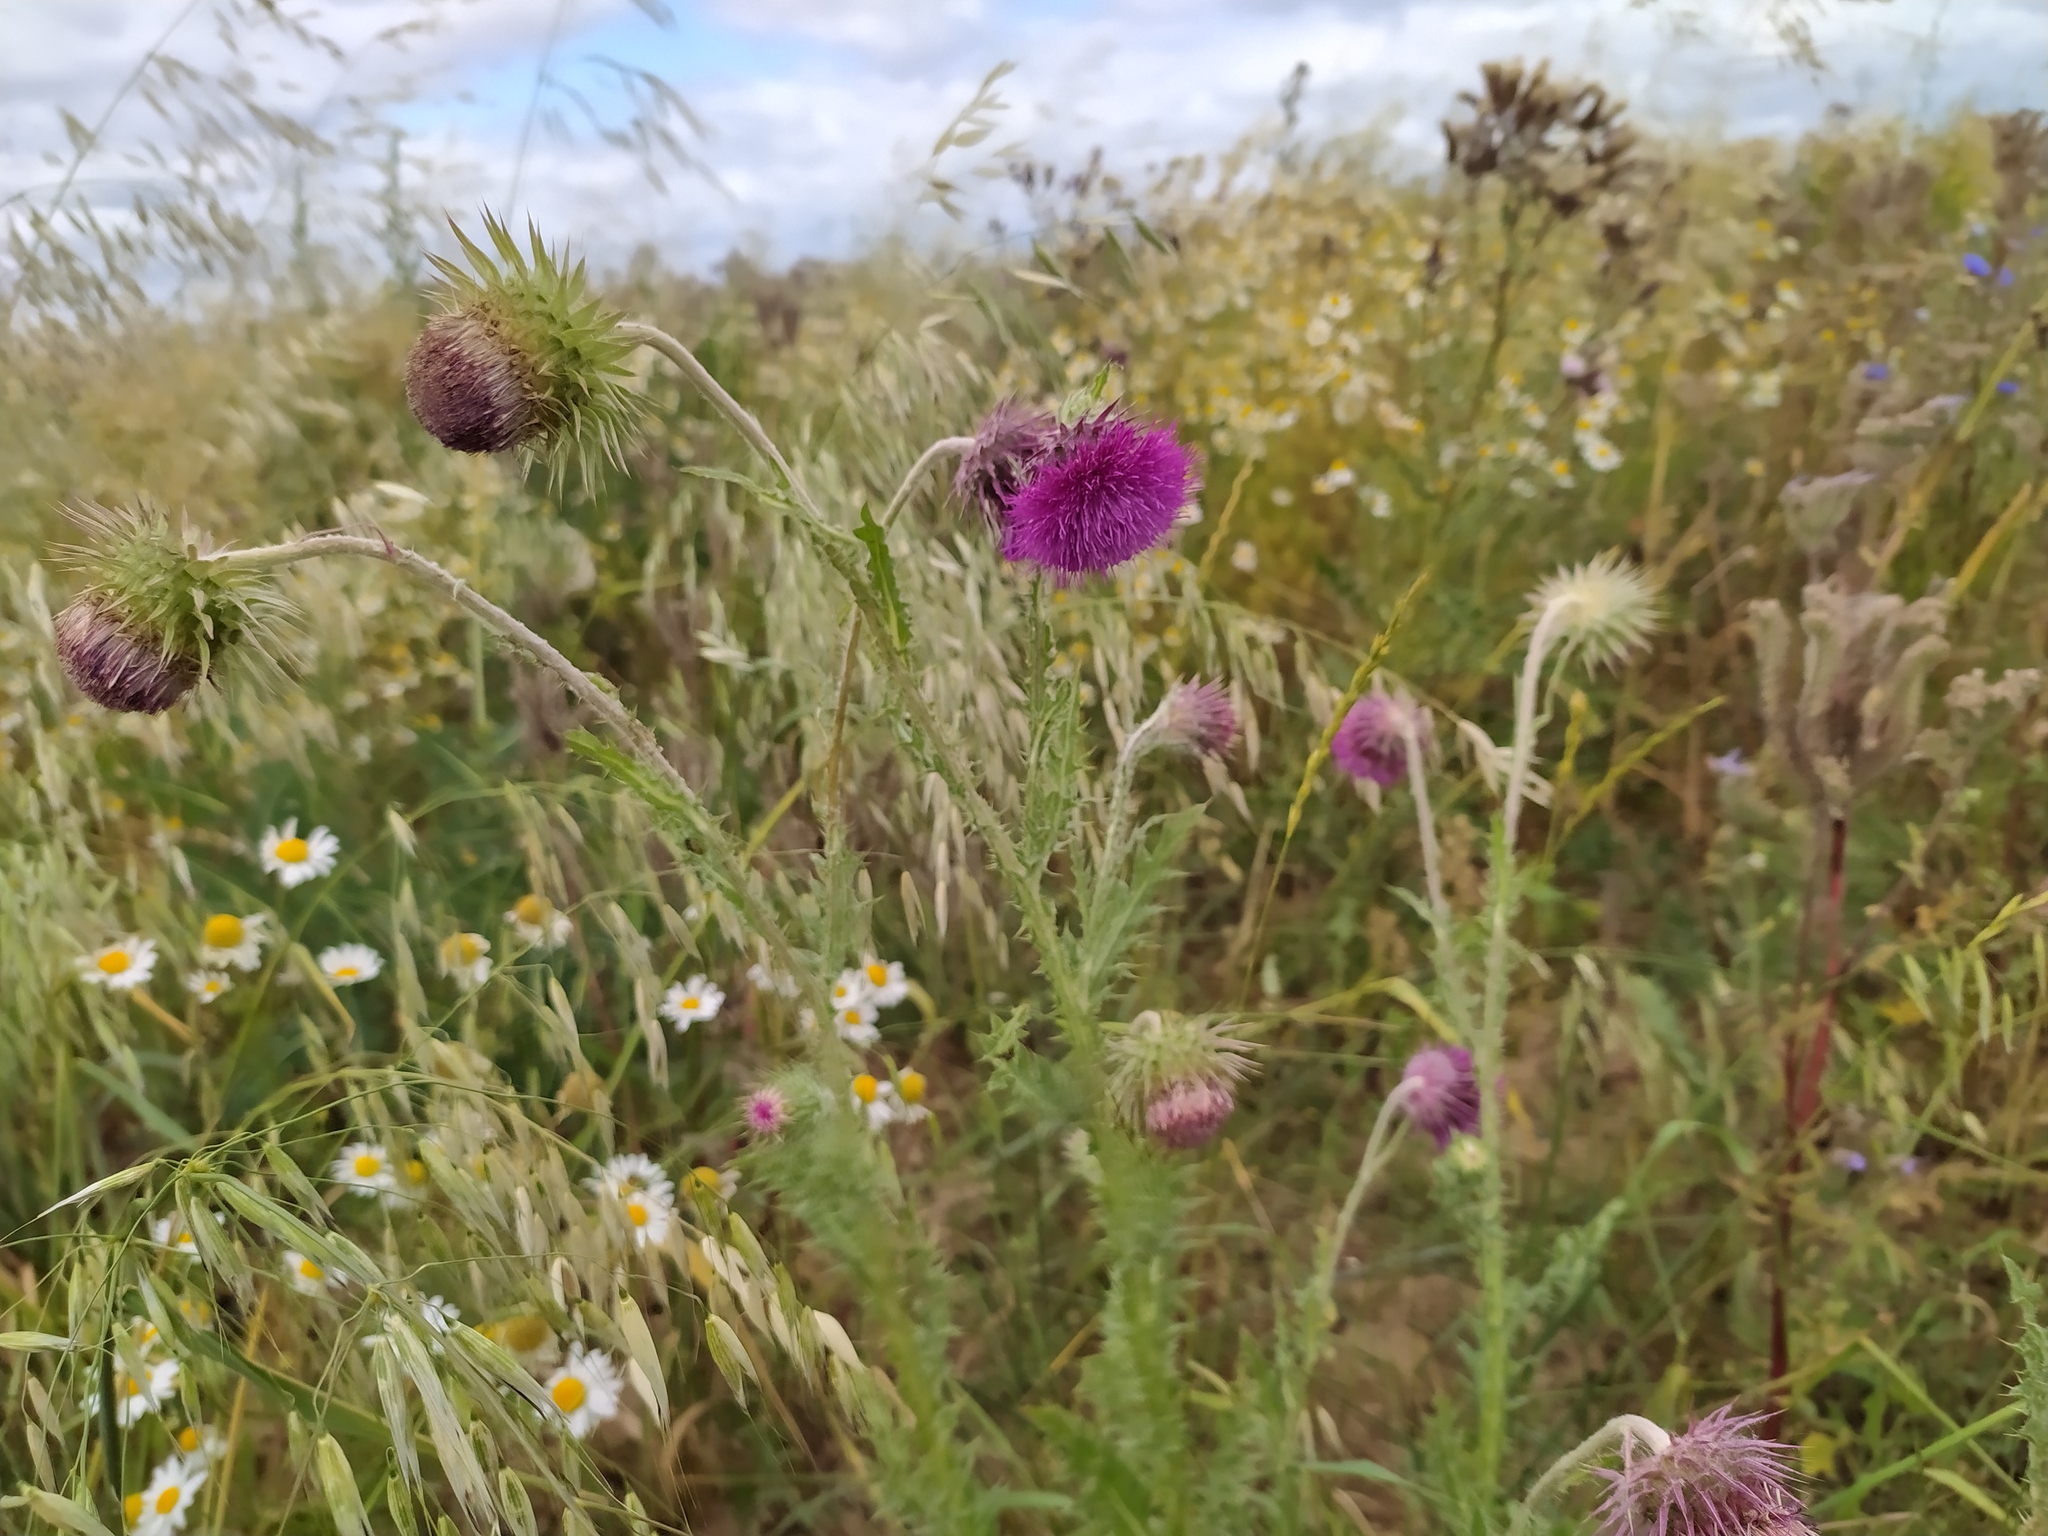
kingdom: Plantae
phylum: Tracheophyta
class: Magnoliopsida
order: Asterales
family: Asteraceae
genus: Carduus
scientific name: Carduus nutans
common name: Musk thistle
